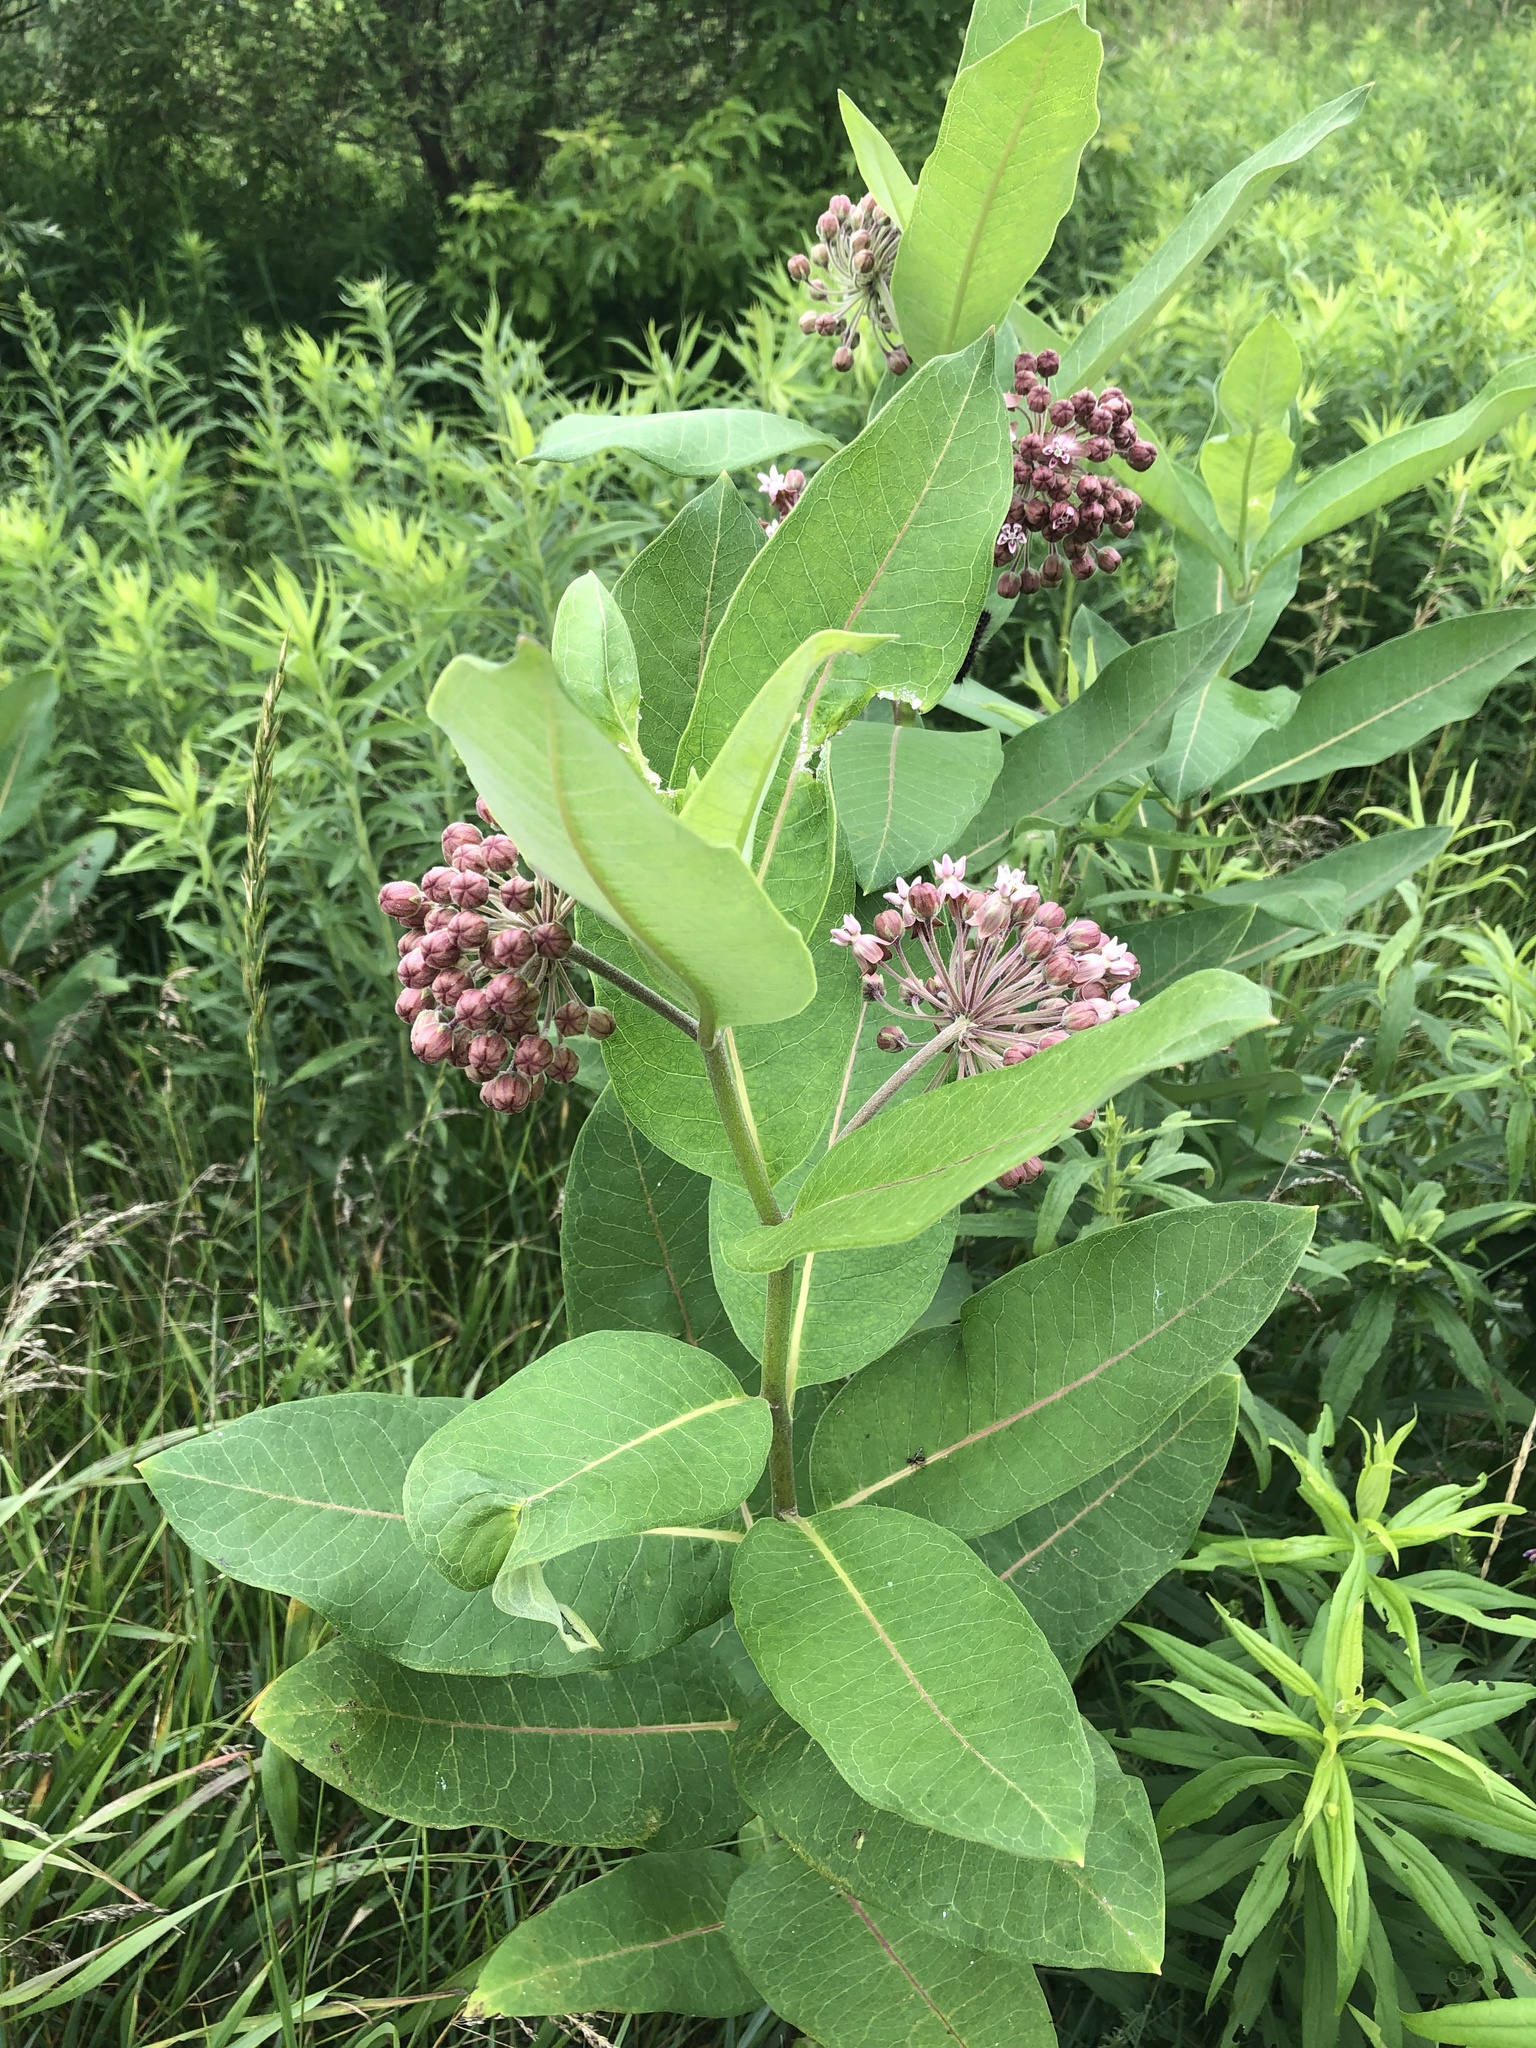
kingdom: Plantae
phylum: Tracheophyta
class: Magnoliopsida
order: Gentianales
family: Apocynaceae
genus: Asclepias
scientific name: Asclepias syriaca
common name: Common milkweed
